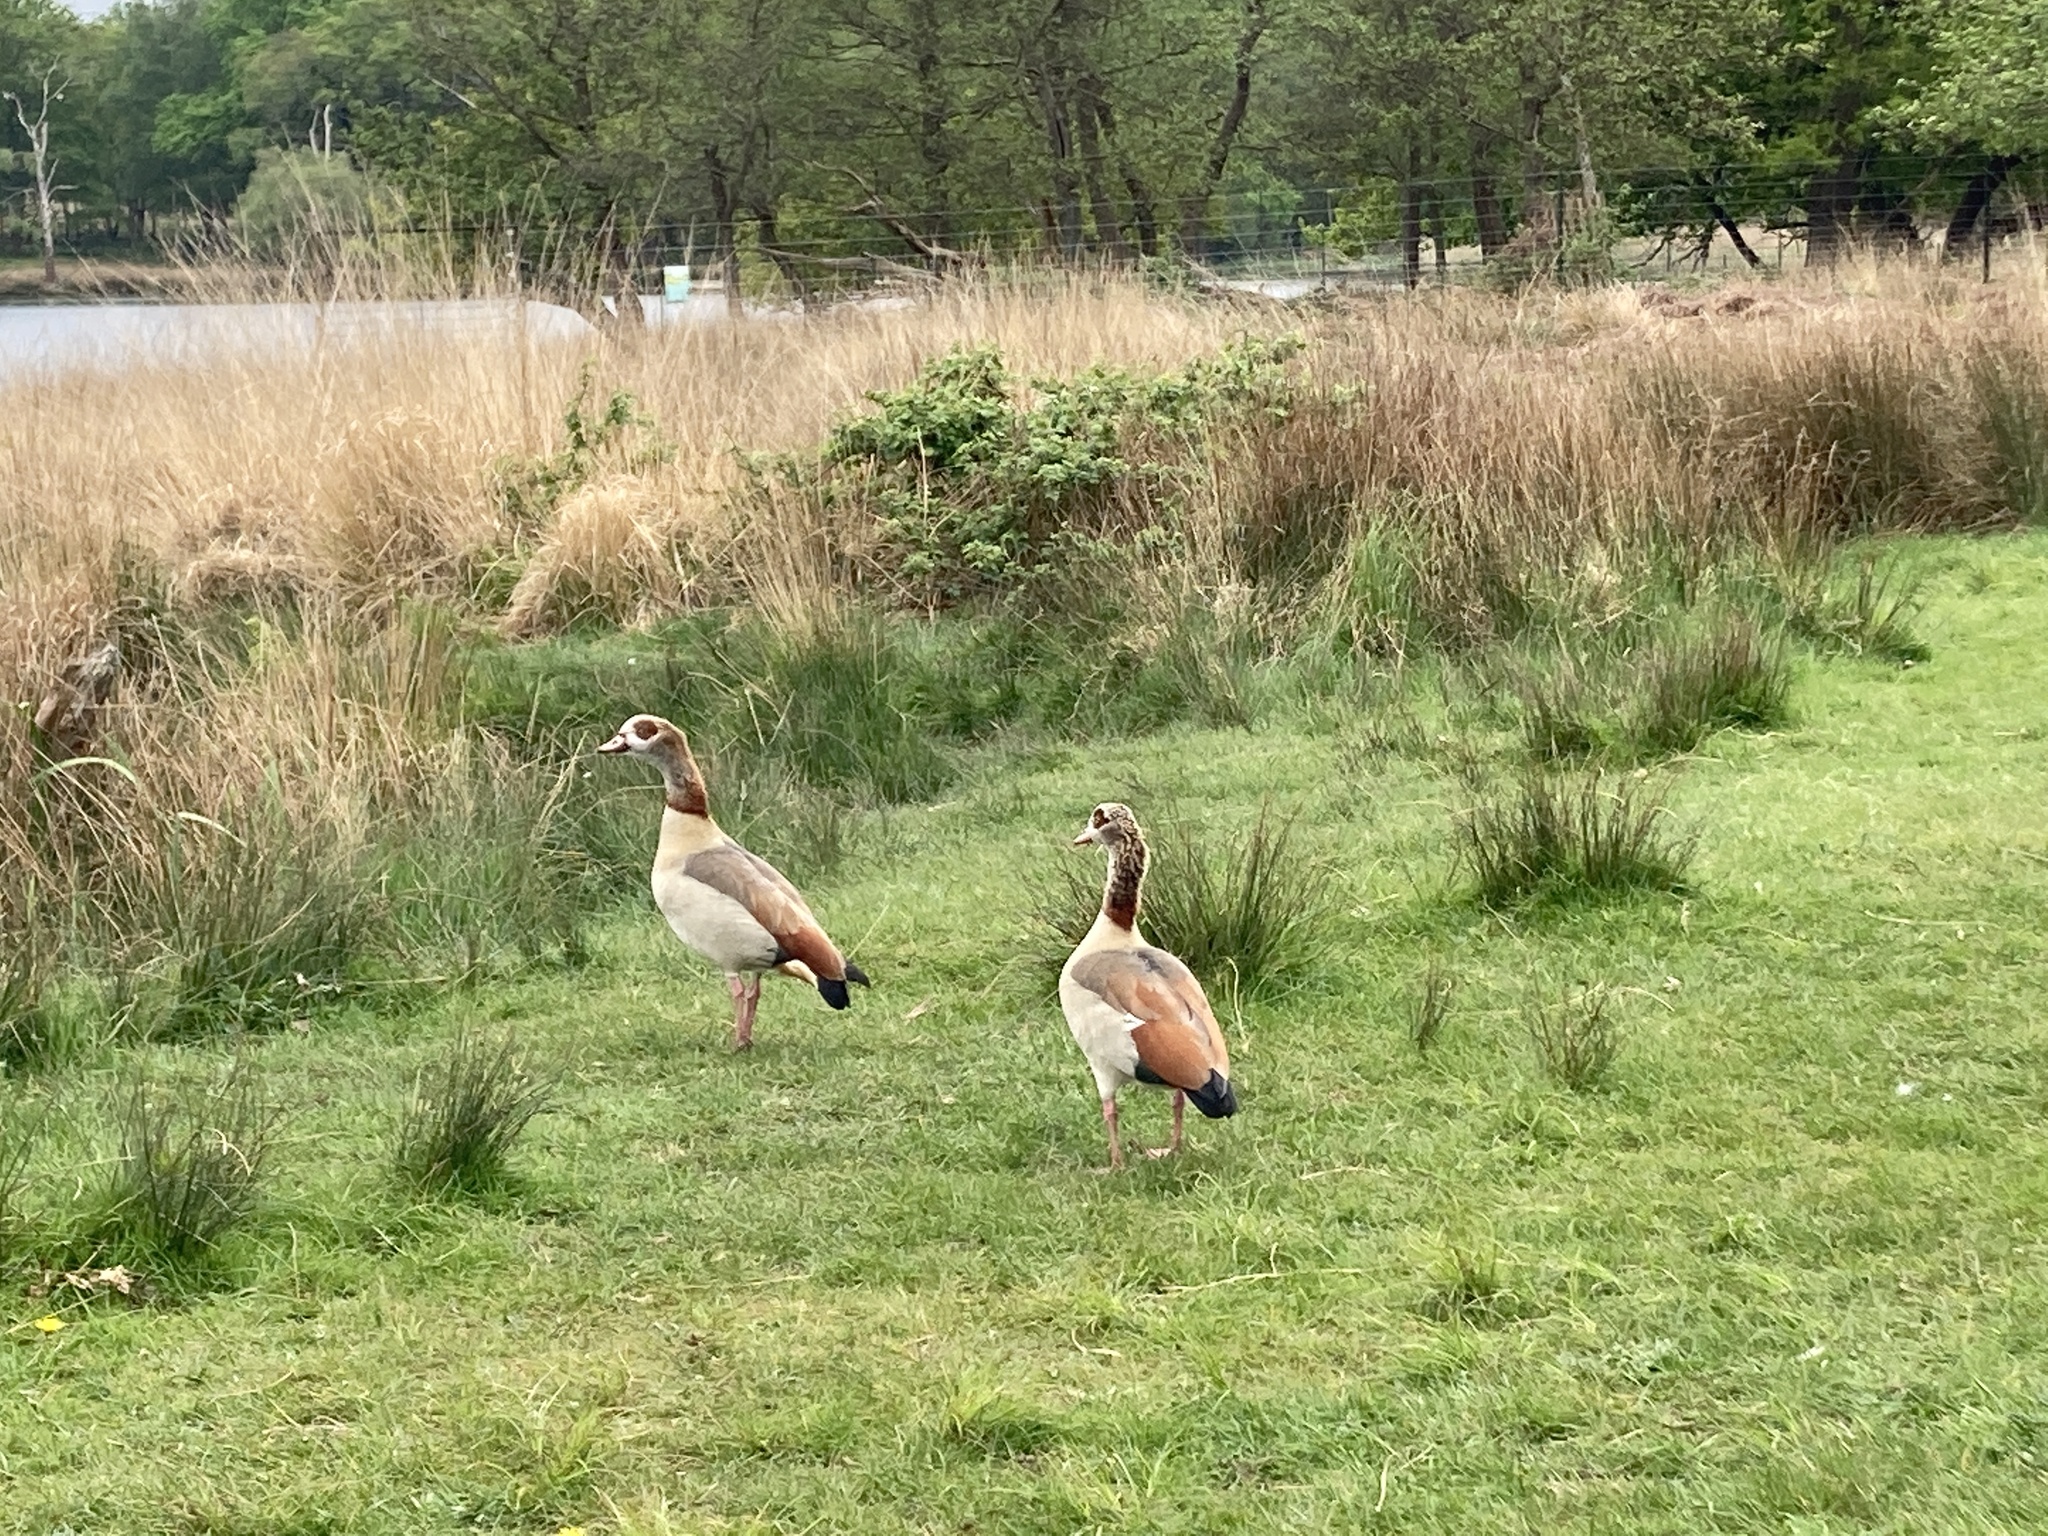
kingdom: Animalia
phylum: Chordata
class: Aves
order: Anseriformes
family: Anatidae
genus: Alopochen
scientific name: Alopochen aegyptiaca
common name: Egyptian goose
